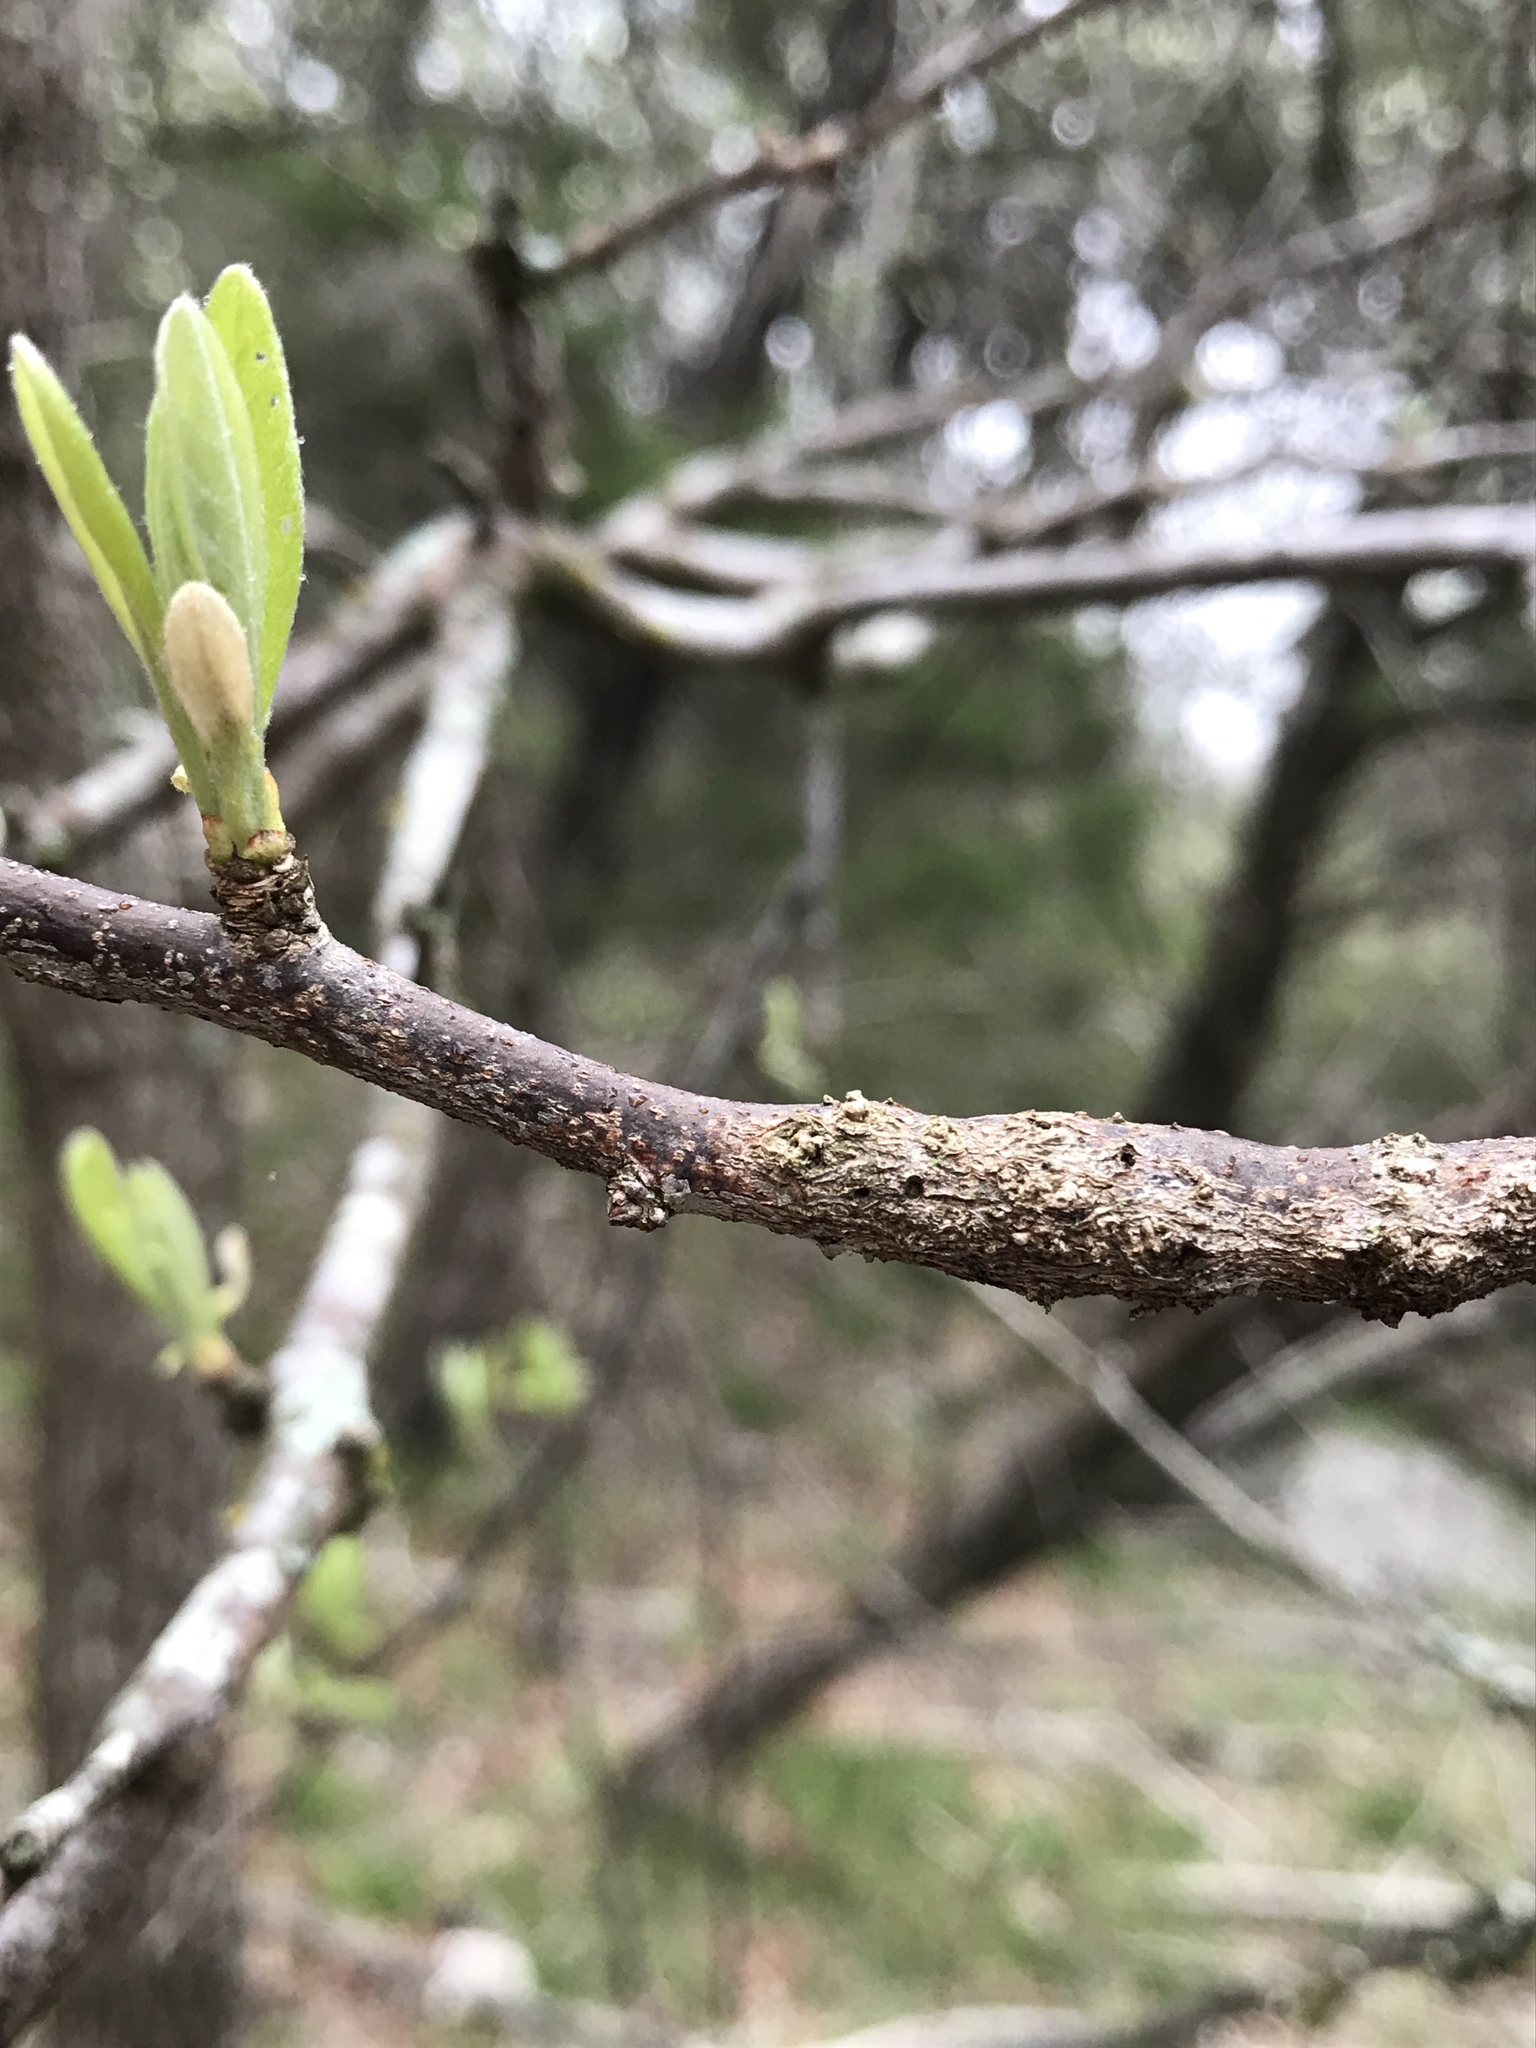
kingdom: Animalia
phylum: Arthropoda
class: Insecta
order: Diptera
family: Cecidomyiidae
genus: Bruggmanniella
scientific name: Bruggmanniella bumeliae
